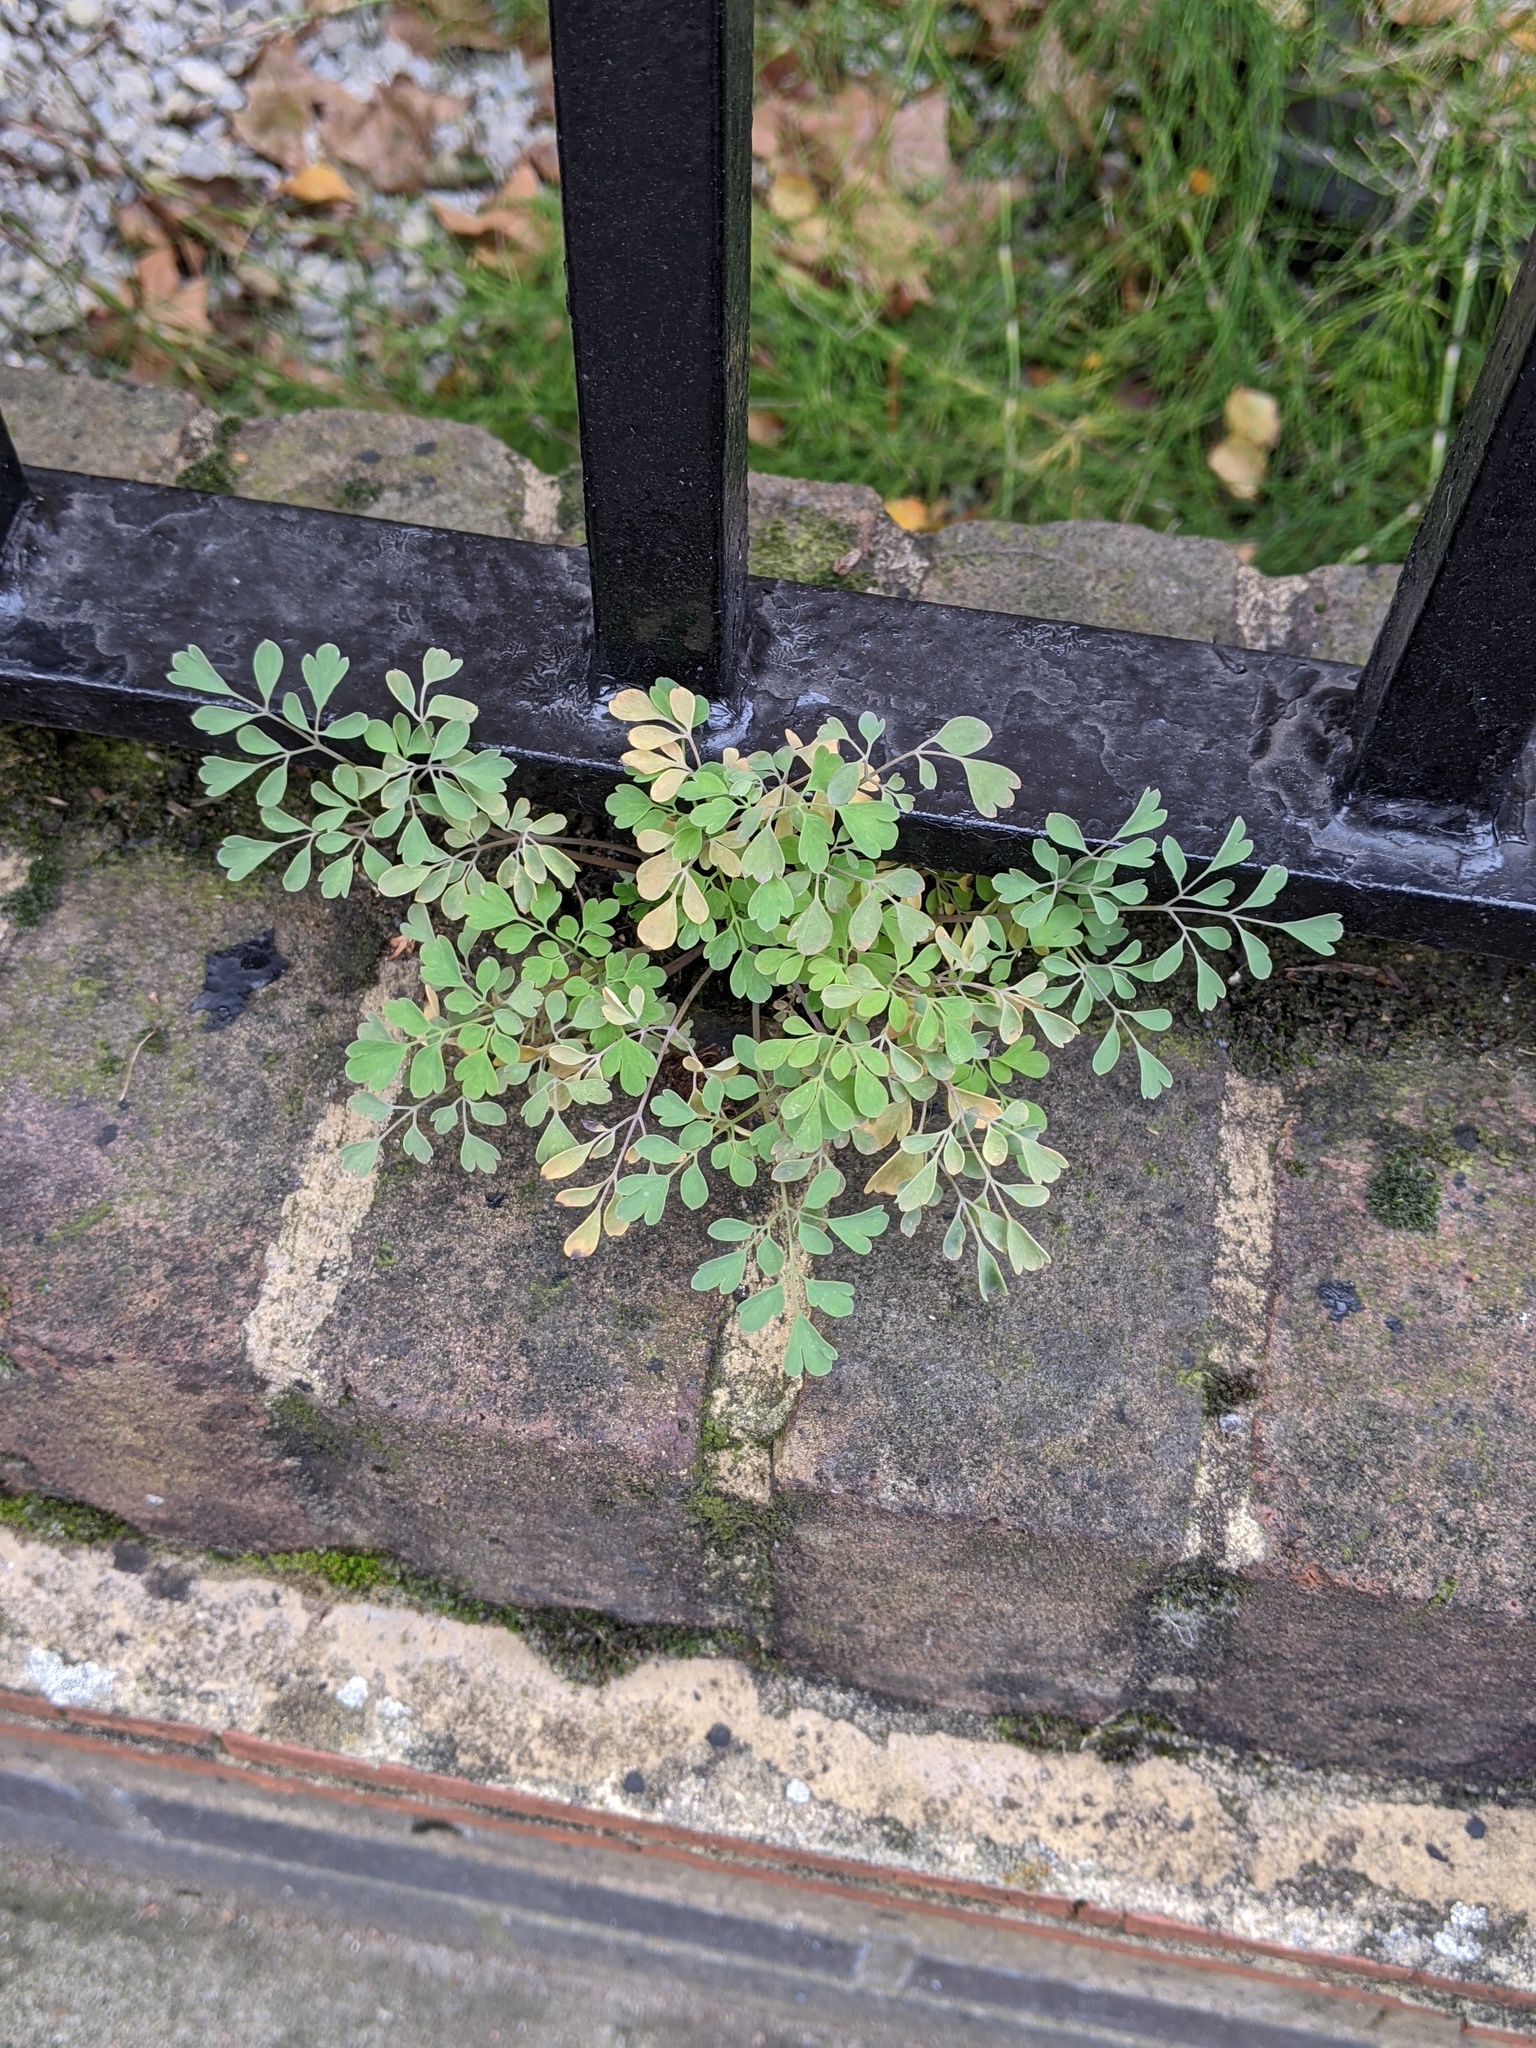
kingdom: Plantae
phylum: Tracheophyta
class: Magnoliopsida
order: Ranunculales
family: Papaveraceae
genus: Pseudofumaria
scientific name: Pseudofumaria lutea
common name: Yellow corydalis
